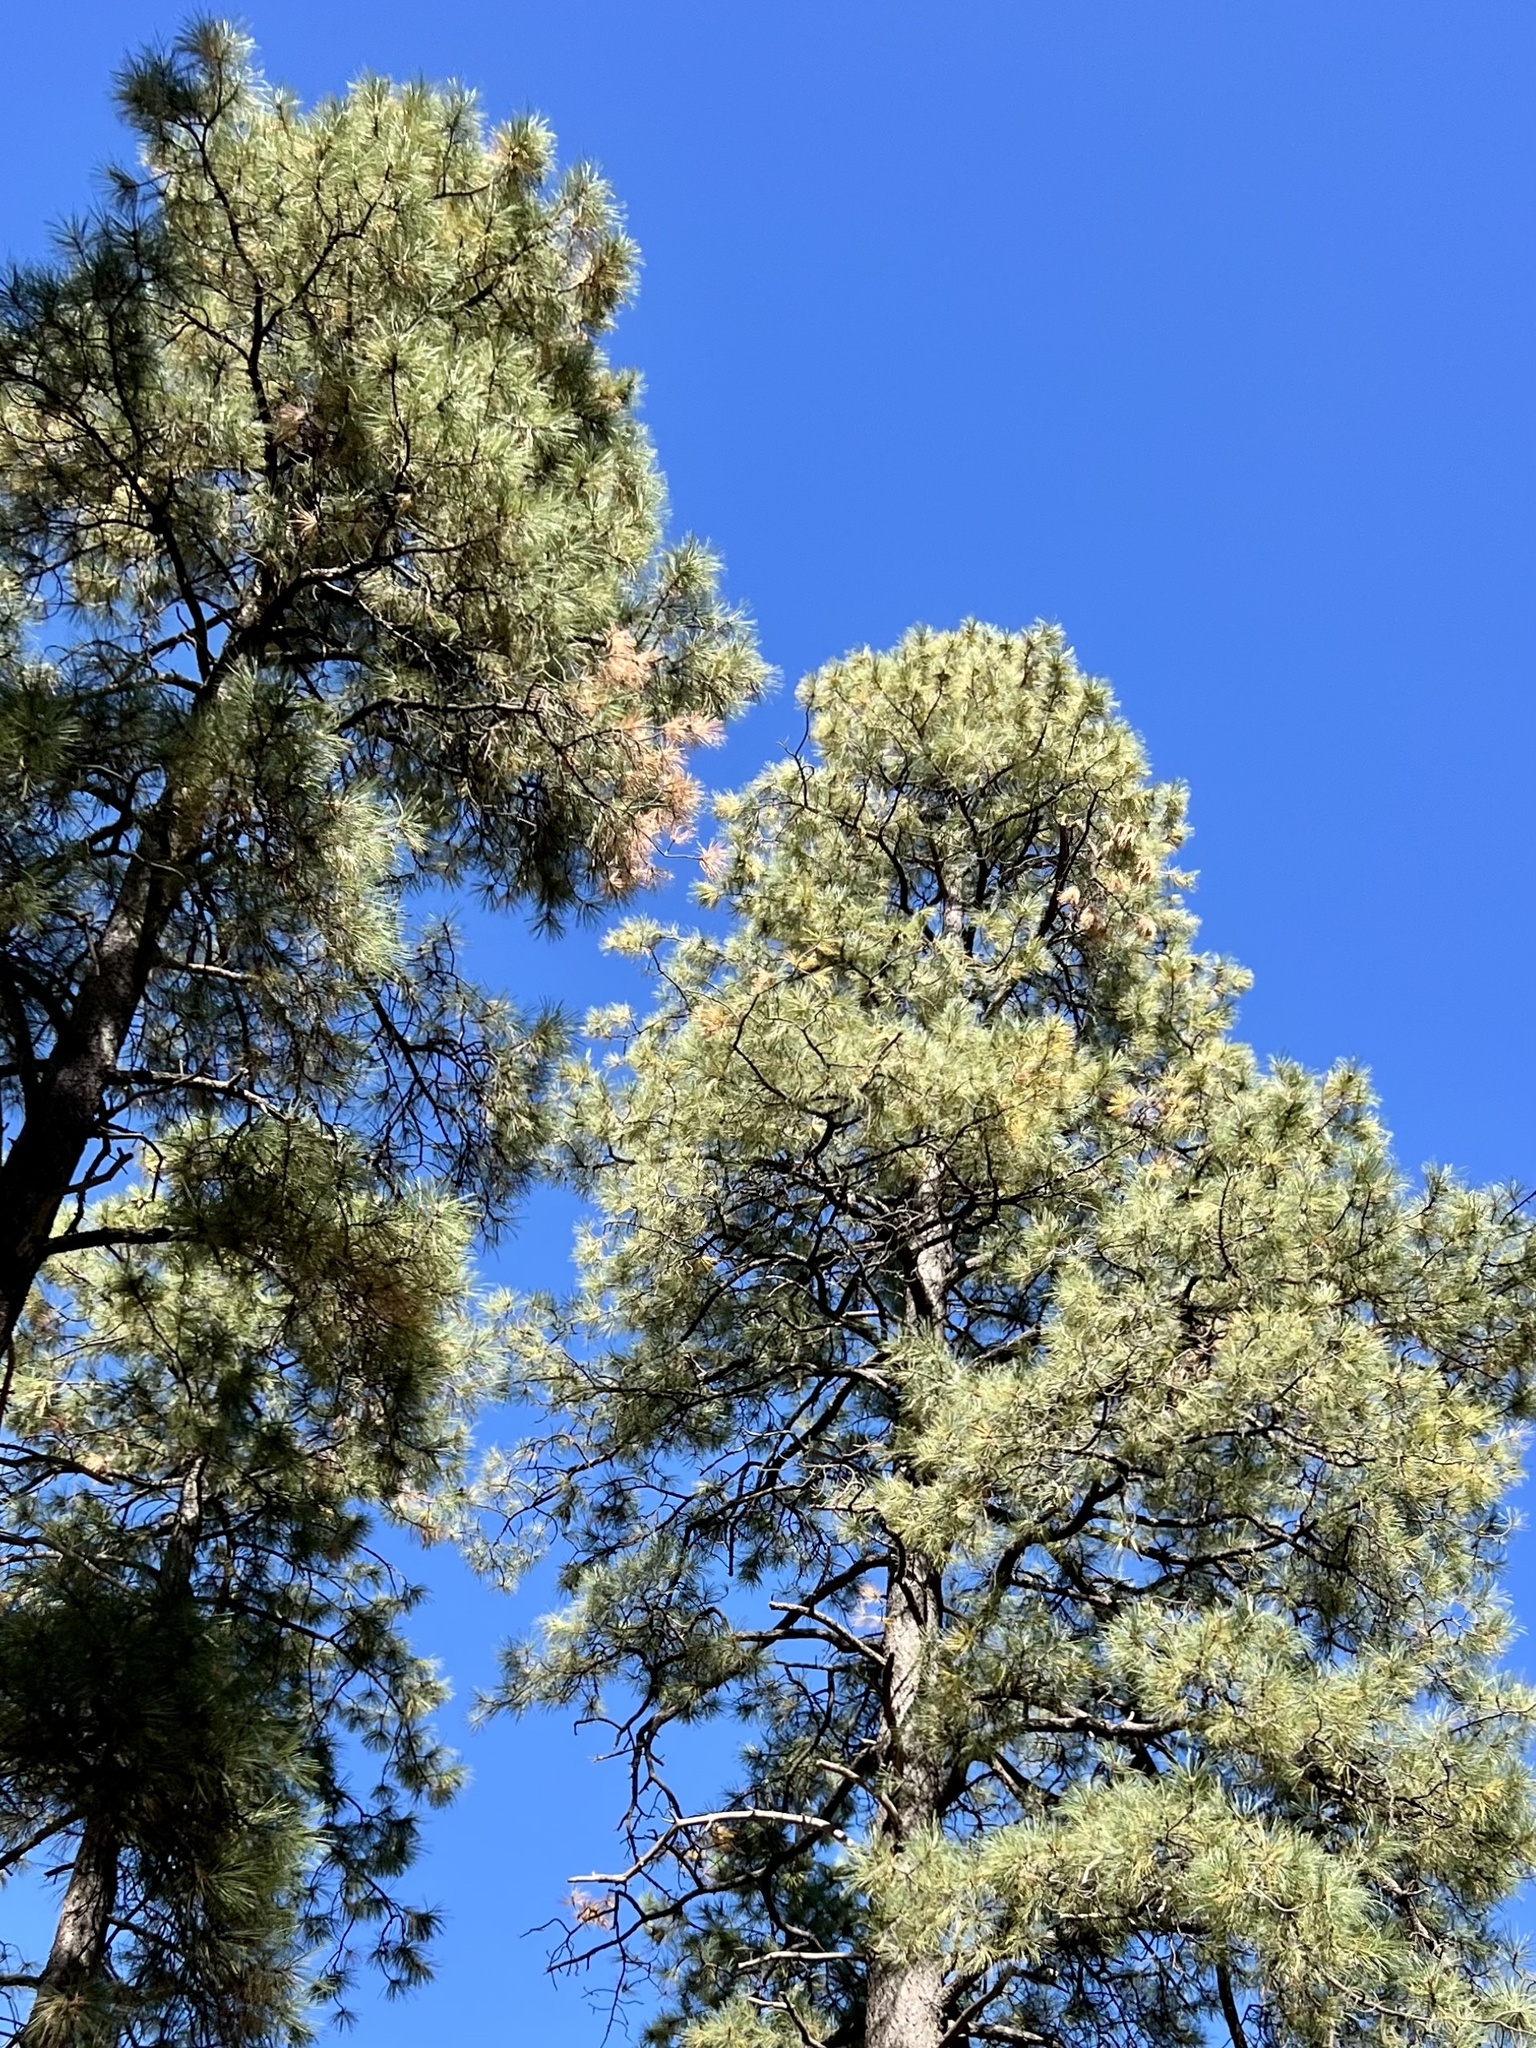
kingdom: Plantae
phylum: Tracheophyta
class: Pinopsida
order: Pinales
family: Pinaceae
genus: Pinus
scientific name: Pinus ponderosa
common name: Western yellow-pine
